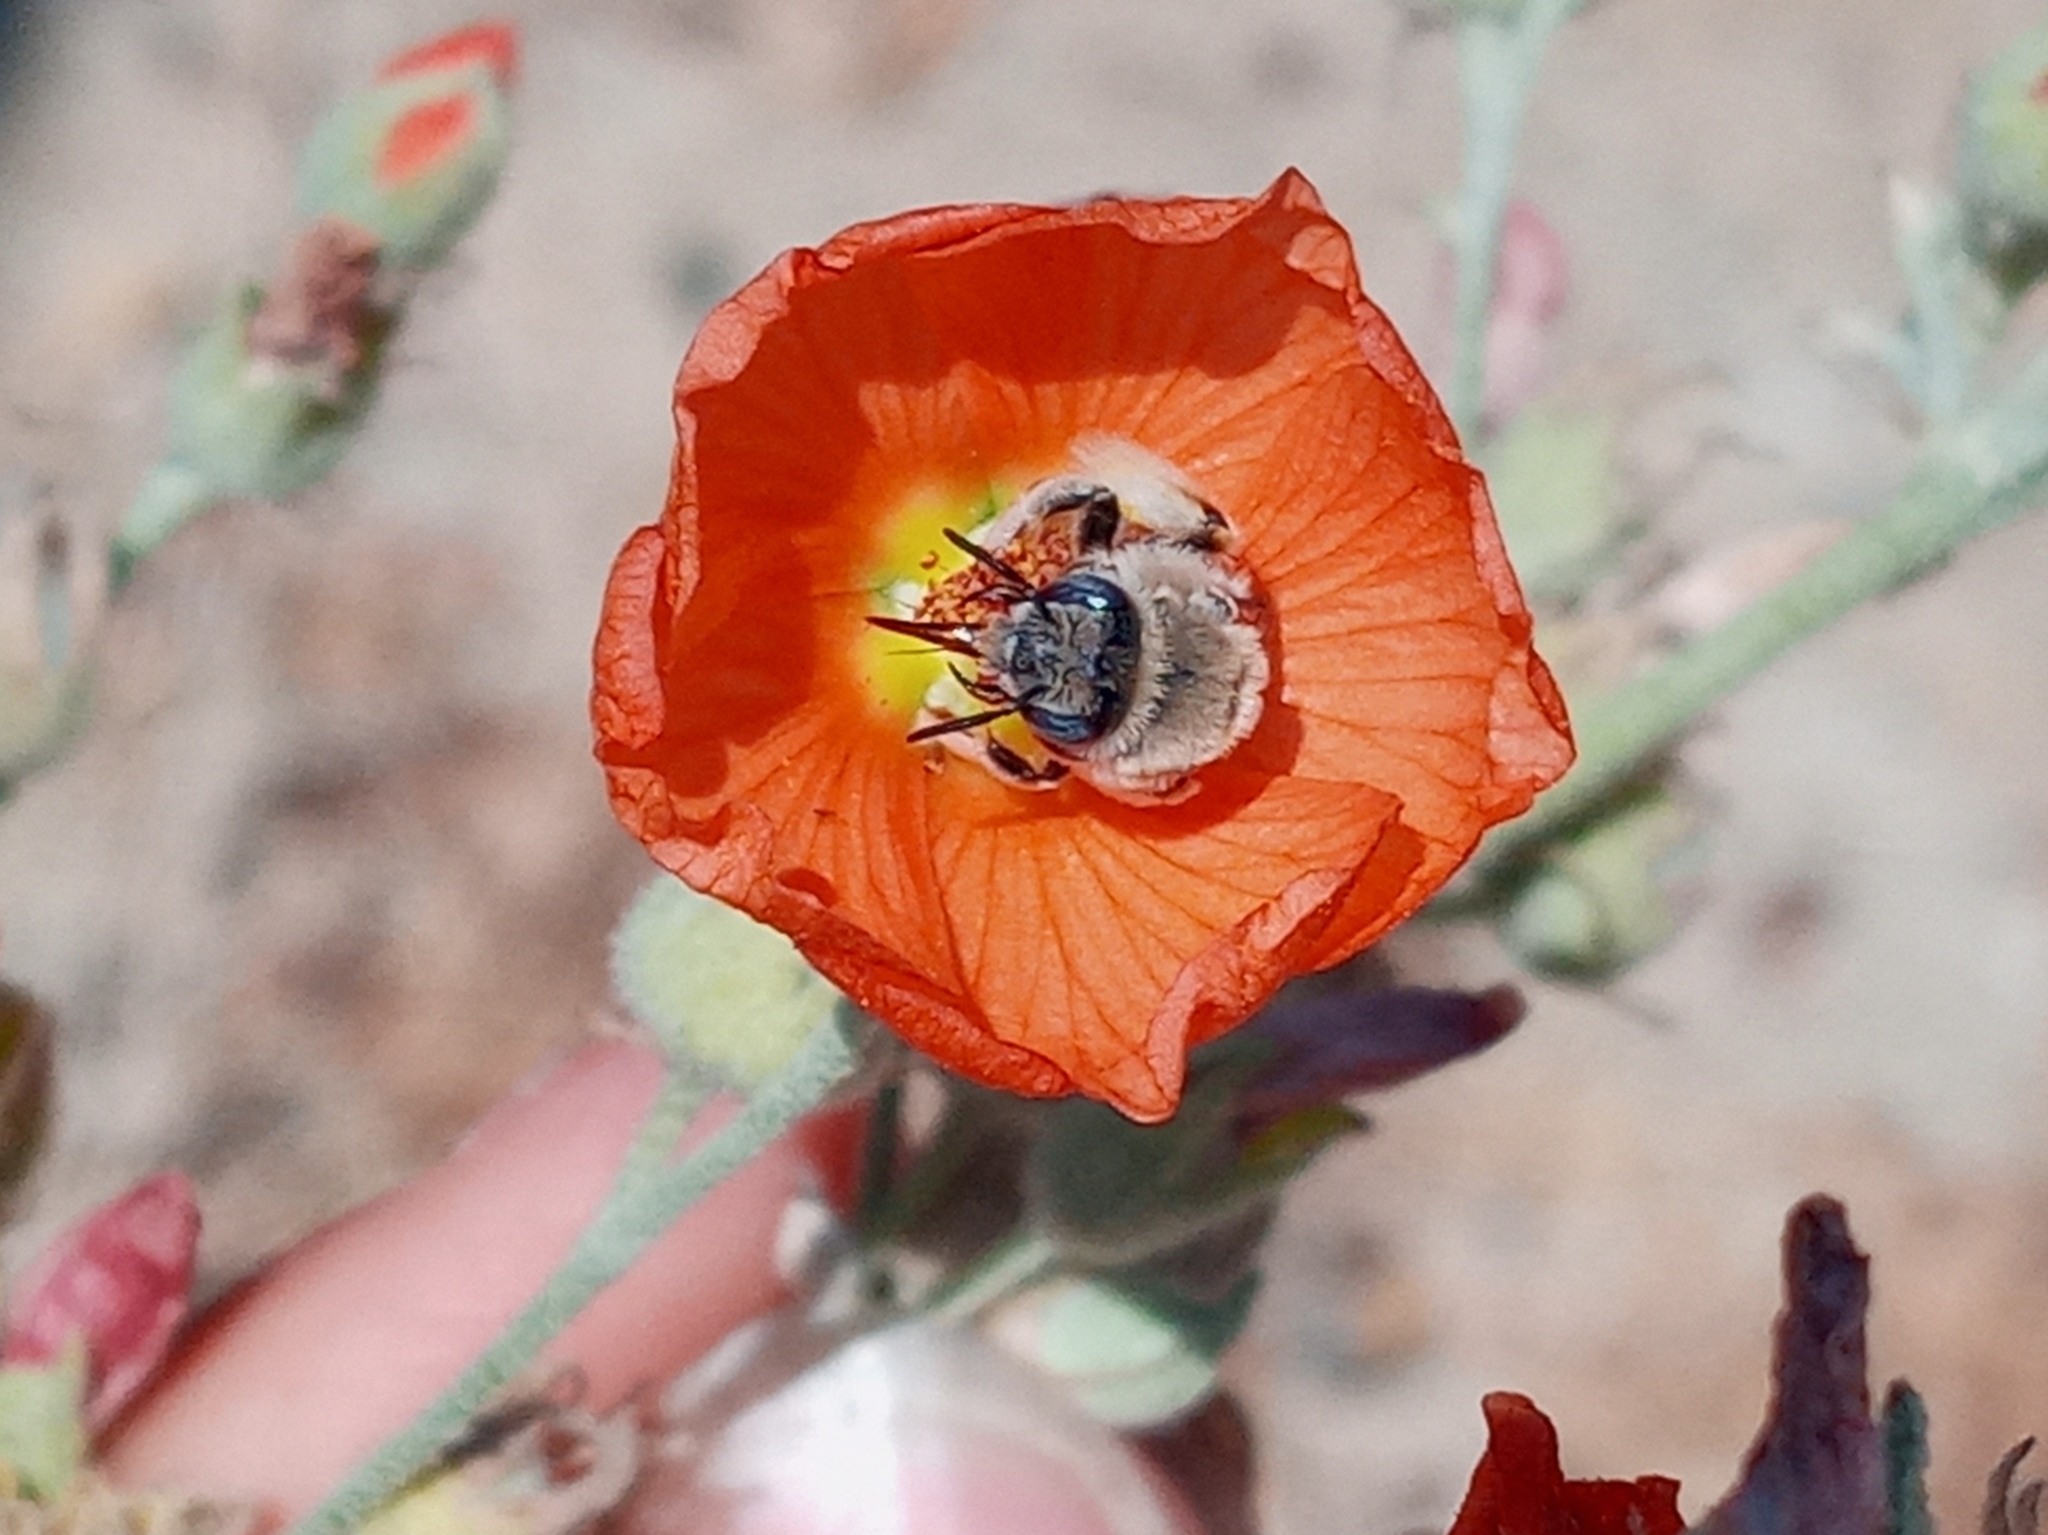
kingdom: Animalia
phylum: Arthropoda
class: Insecta
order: Hymenoptera
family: Apidae
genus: Diadasia
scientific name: Diadasia ochracea
